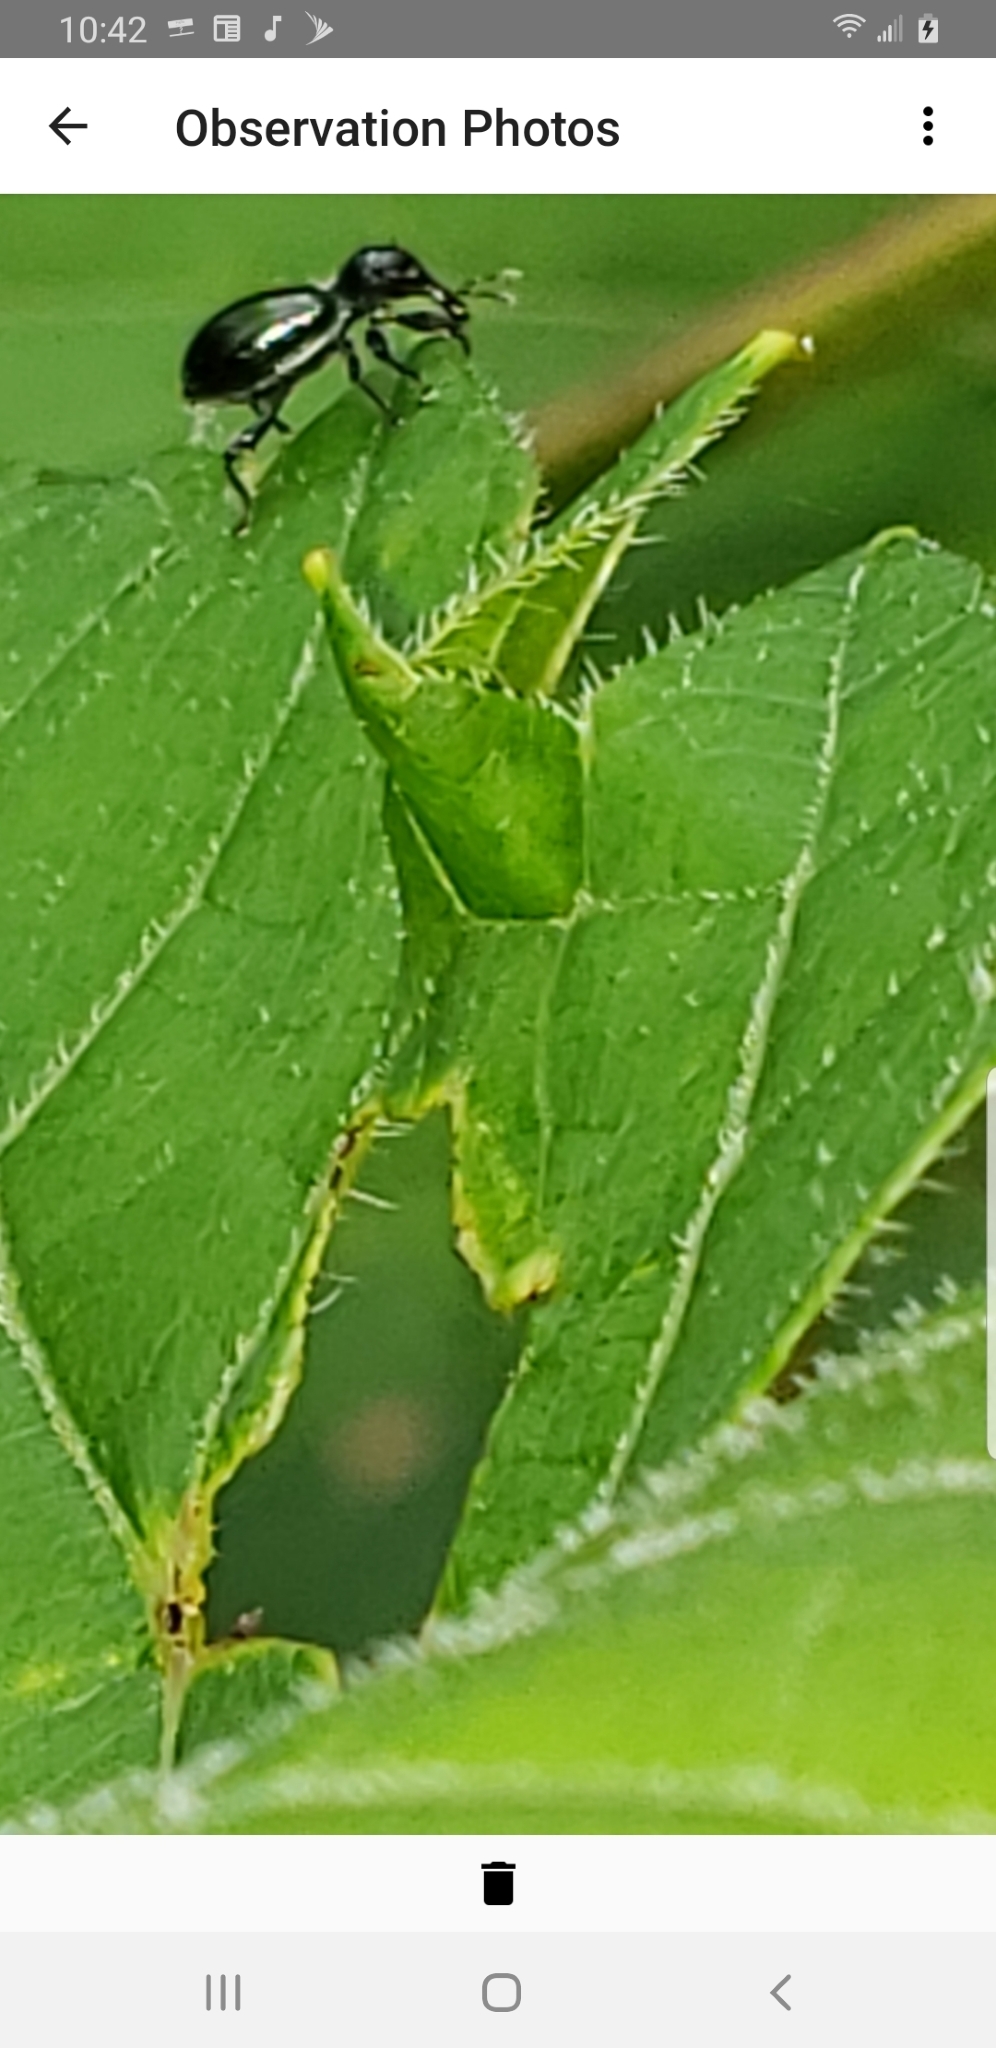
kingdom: Animalia
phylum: Arthropoda
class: Insecta
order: Coleoptera
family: Curculionidae
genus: Otidocephalus
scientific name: Otidocephalus chevrolatii
